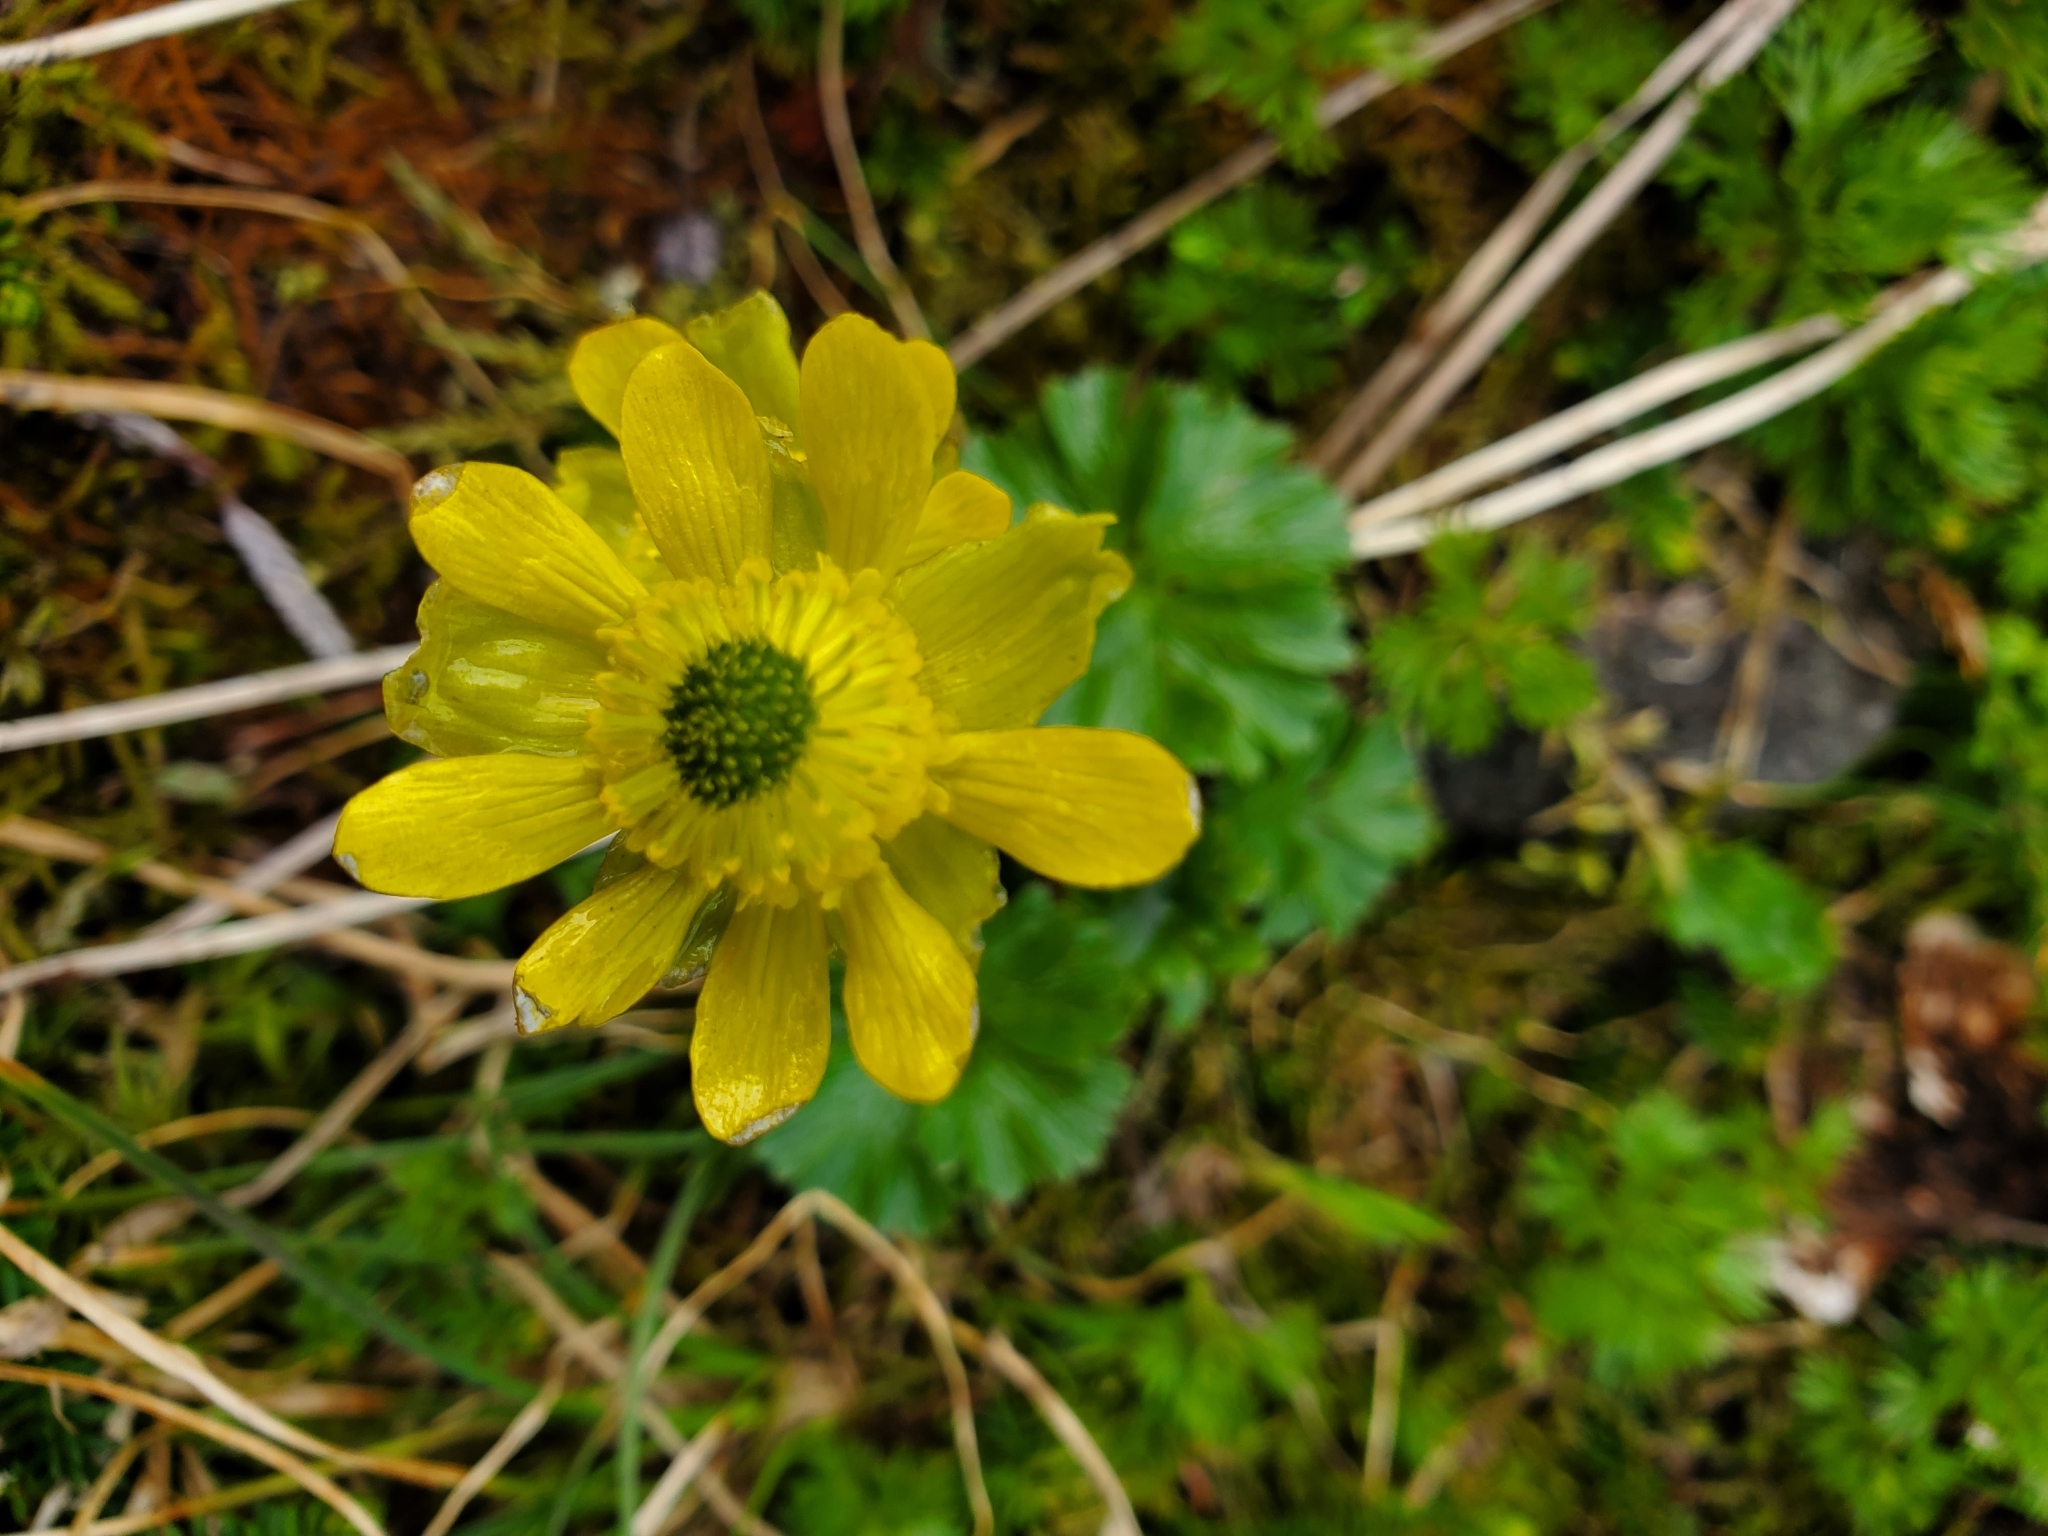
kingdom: Plantae
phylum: Tracheophyta
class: Magnoliopsida
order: Ranunculales
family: Ranunculaceae
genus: Arcteranthis
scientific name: Arcteranthis cooleyae
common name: Cooley's buttercup
